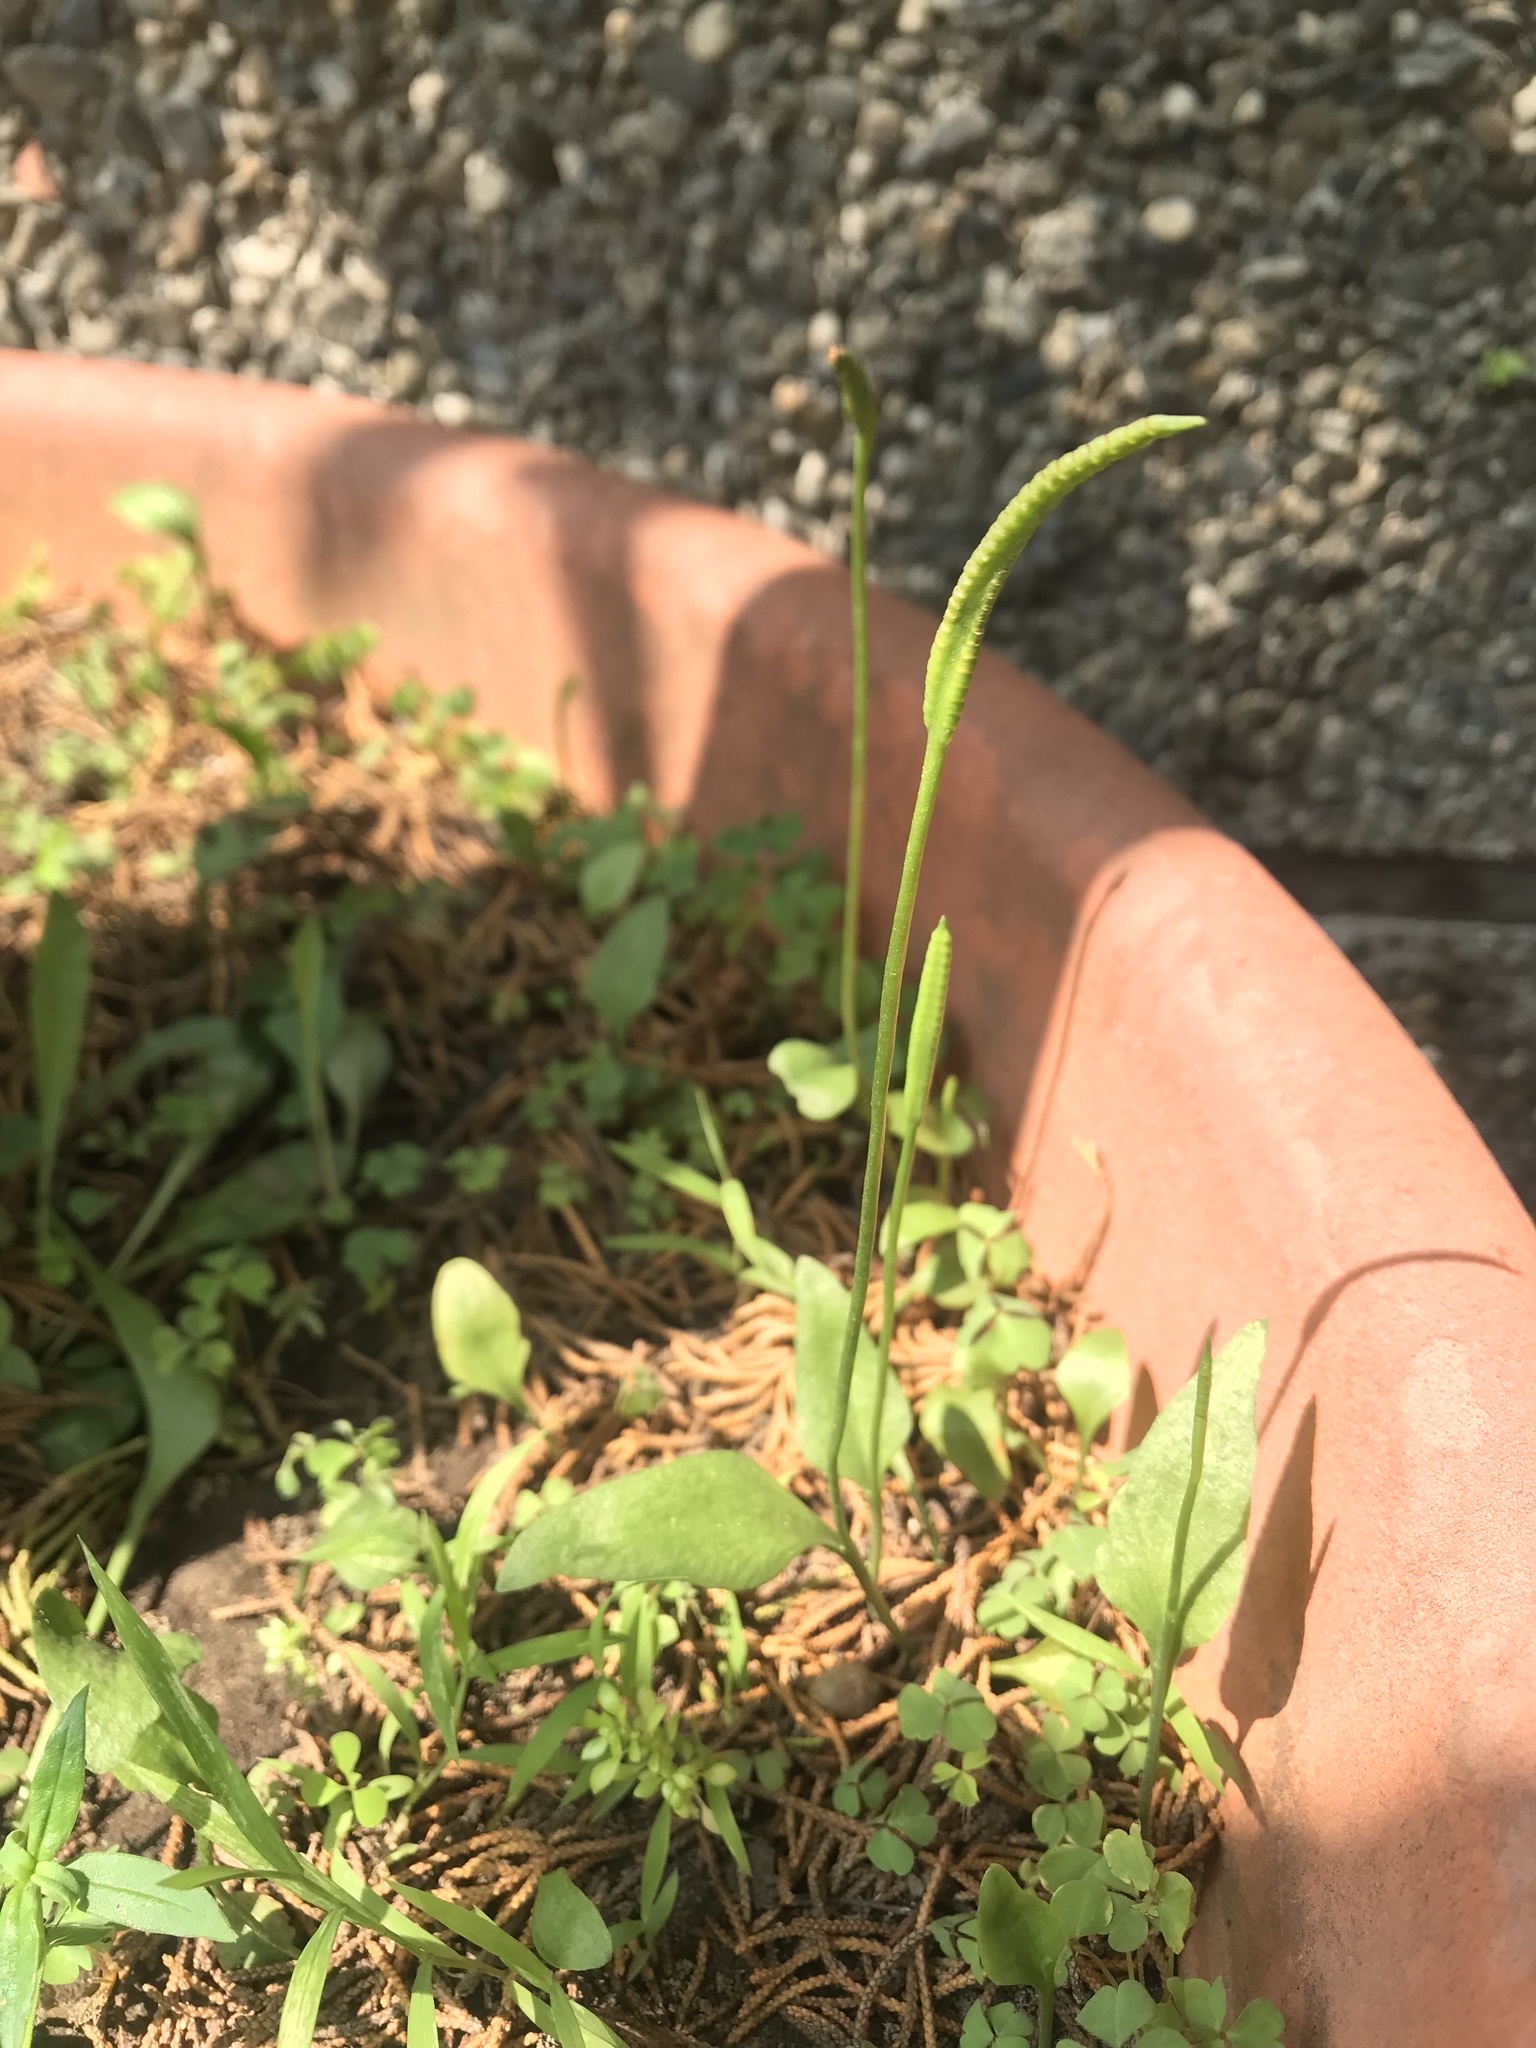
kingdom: Plantae
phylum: Tracheophyta
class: Polypodiopsida
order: Ophioglossales
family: Ophioglossaceae
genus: Ophioglossum
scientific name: Ophioglossum vulgatum
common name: Adder's-tongue
